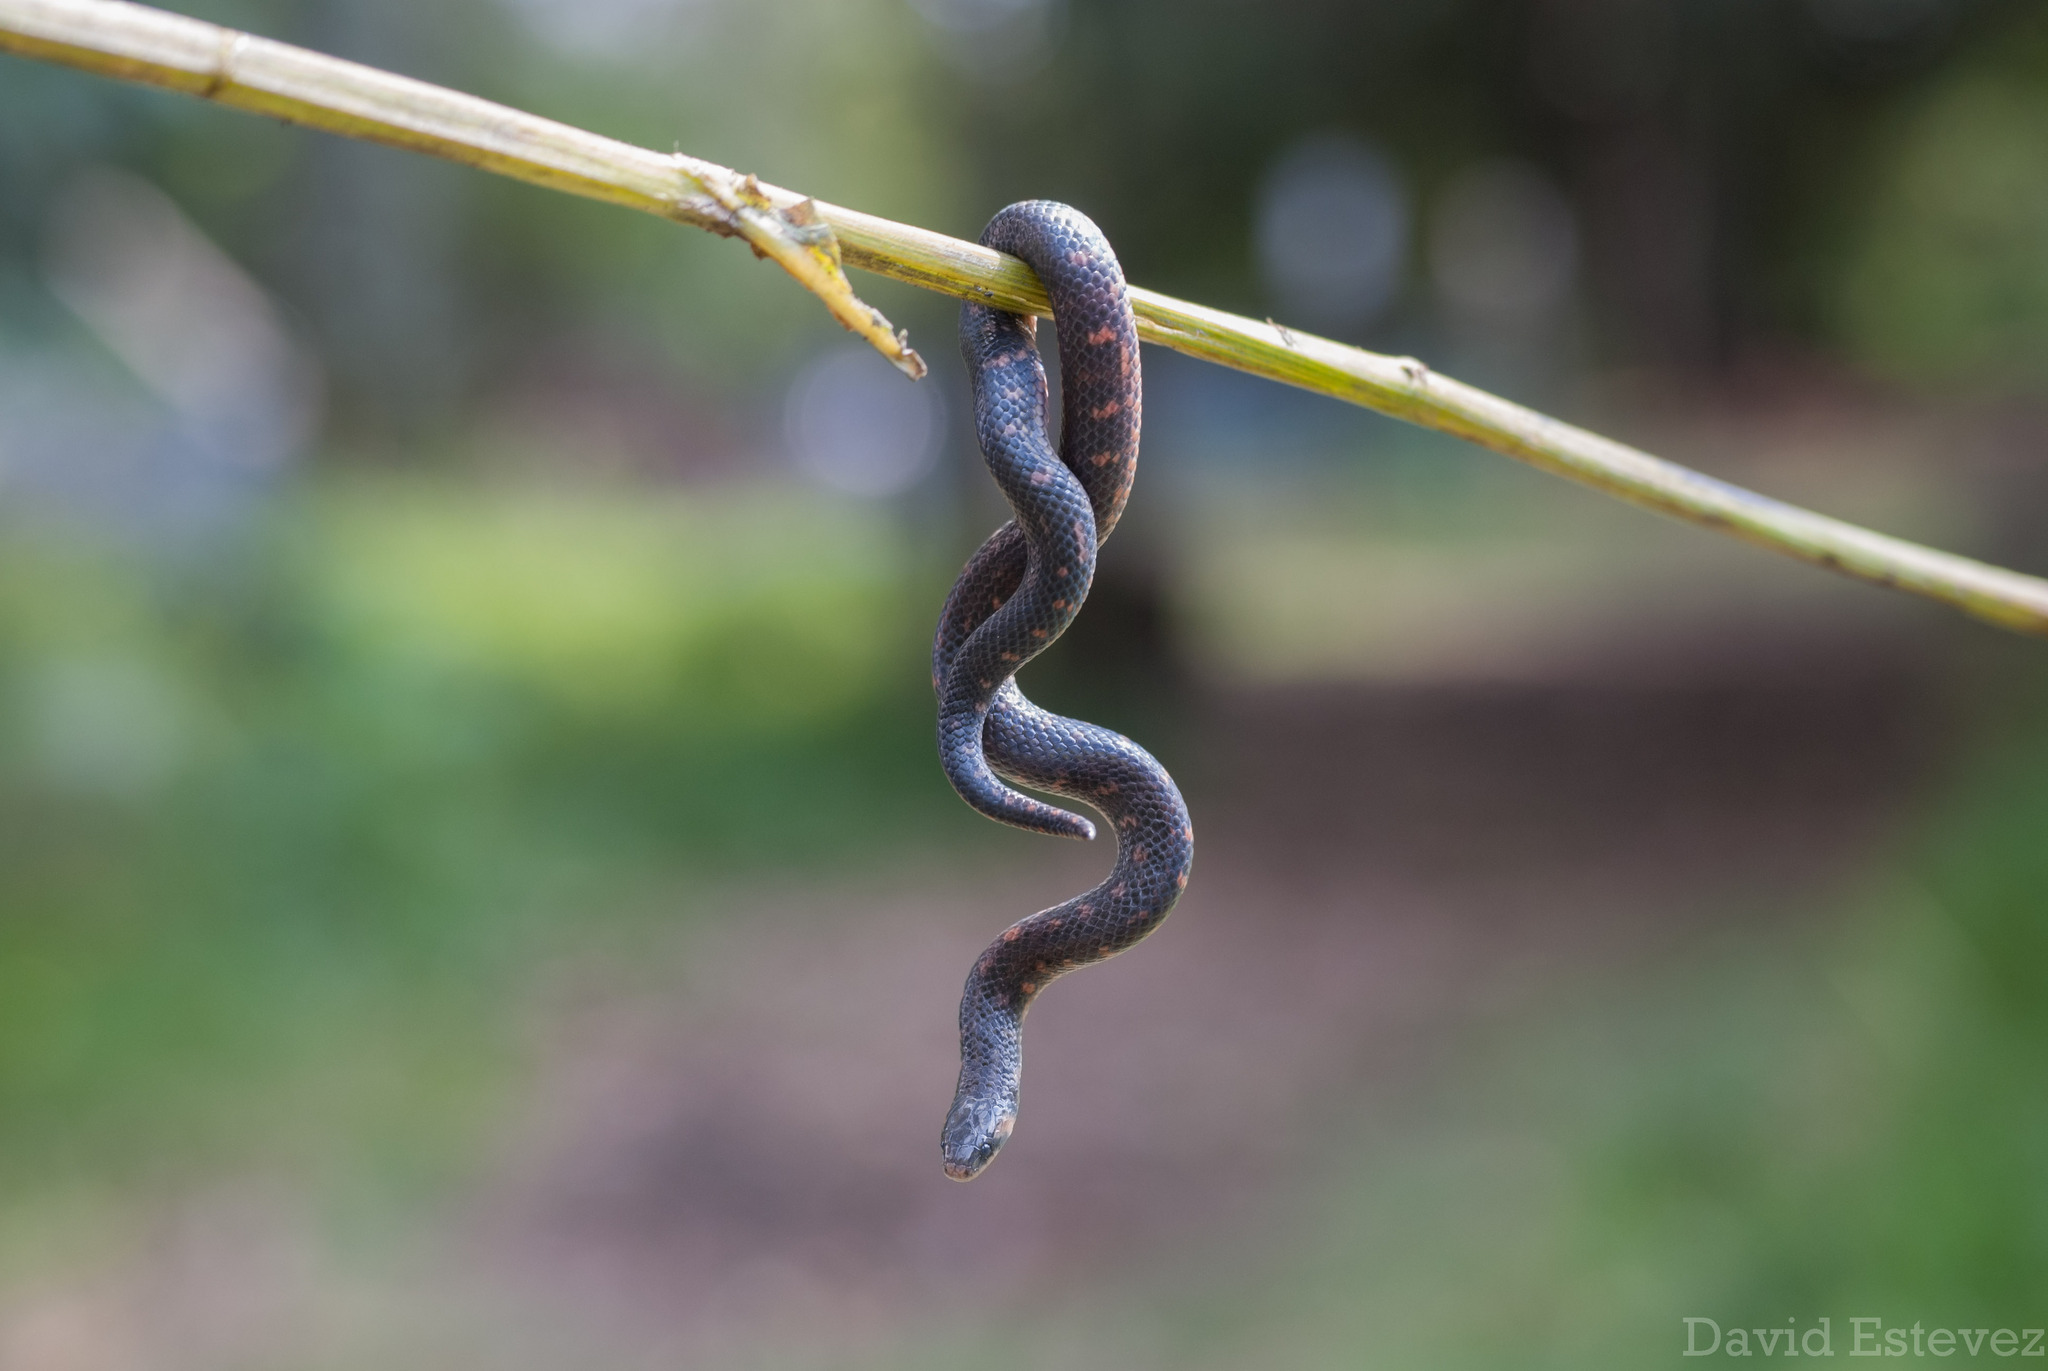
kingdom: Animalia
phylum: Chordata
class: Squamata
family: Colubridae
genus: Atractus
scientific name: Atractus crassicaudatus
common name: Thickhead ground snake
